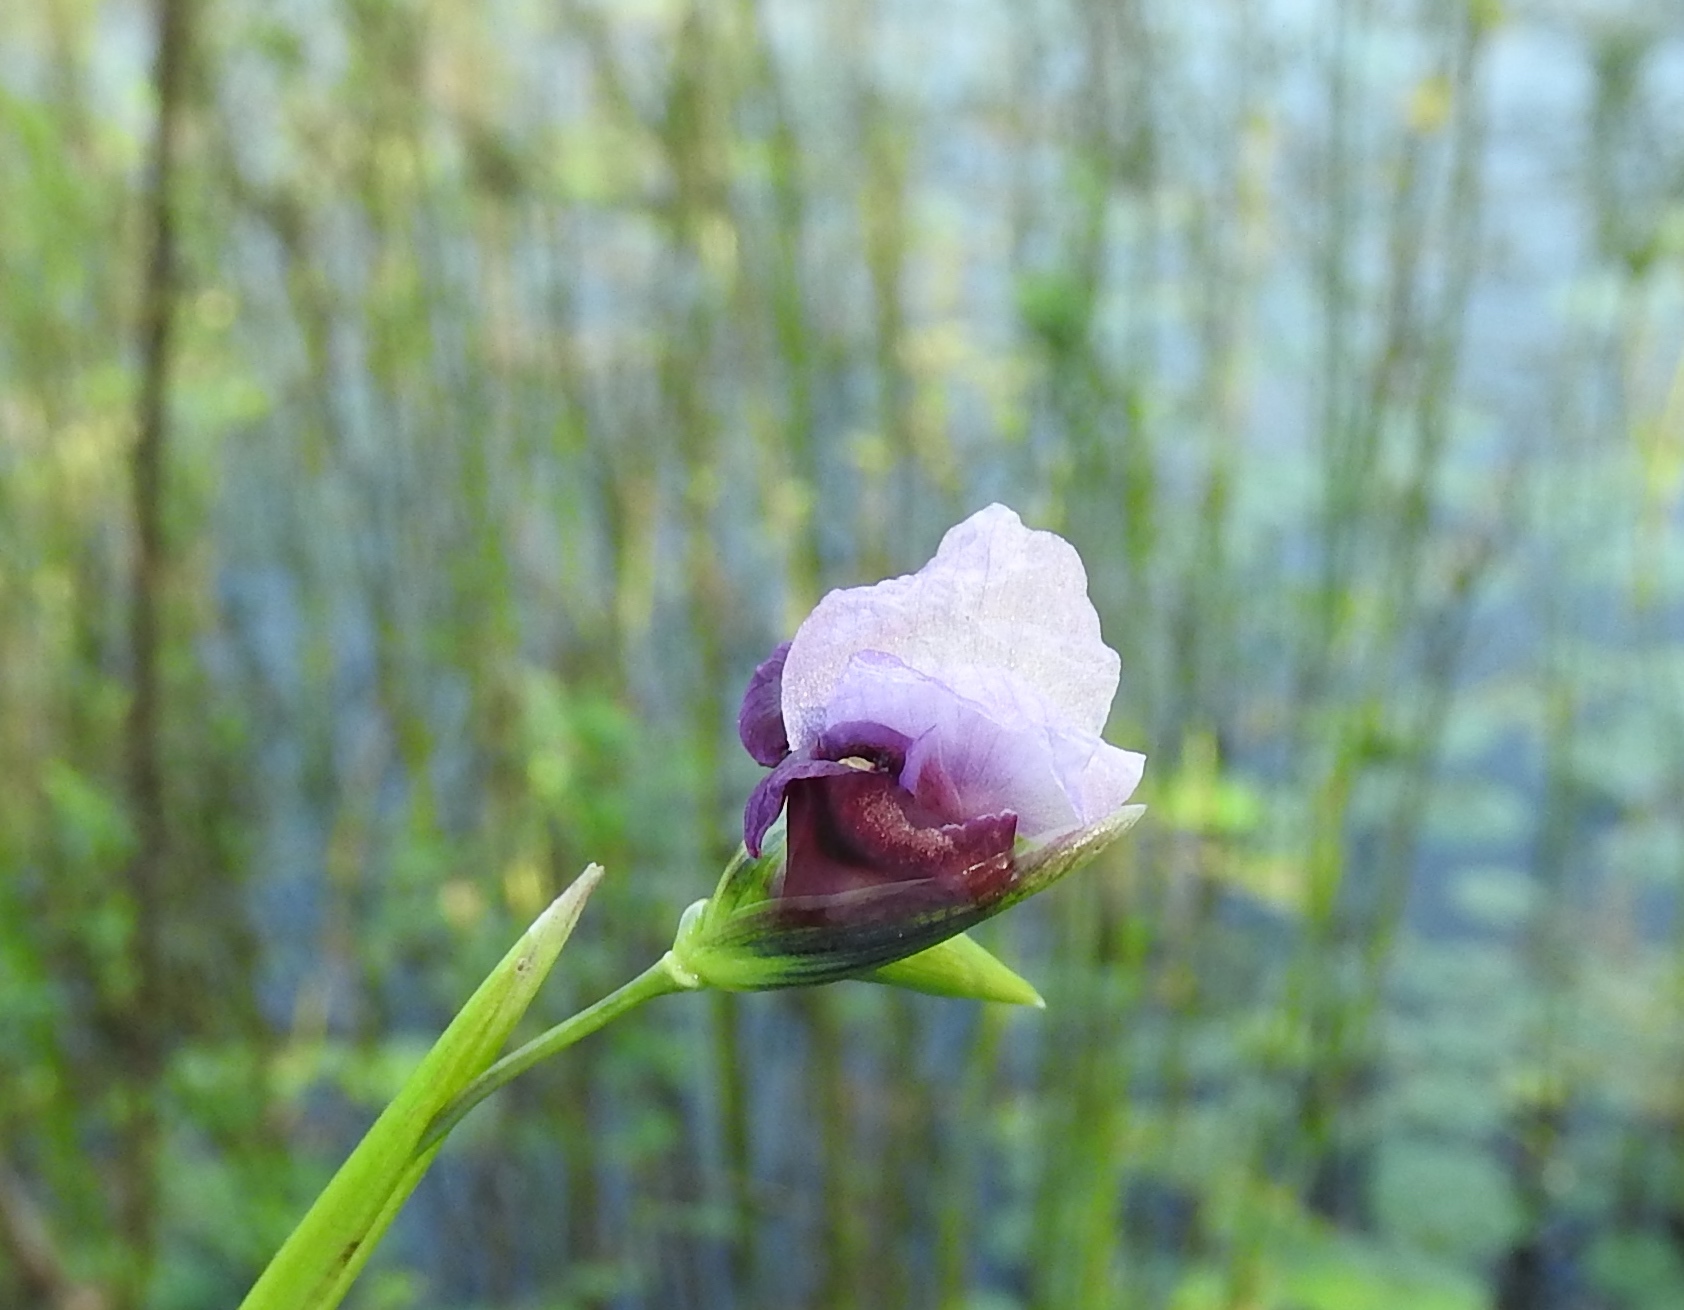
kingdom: Plantae
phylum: Tracheophyta
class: Liliopsida
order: Zingiberales
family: Marantaceae
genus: Thalia
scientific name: Thalia geniculata
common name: Arrowroot
